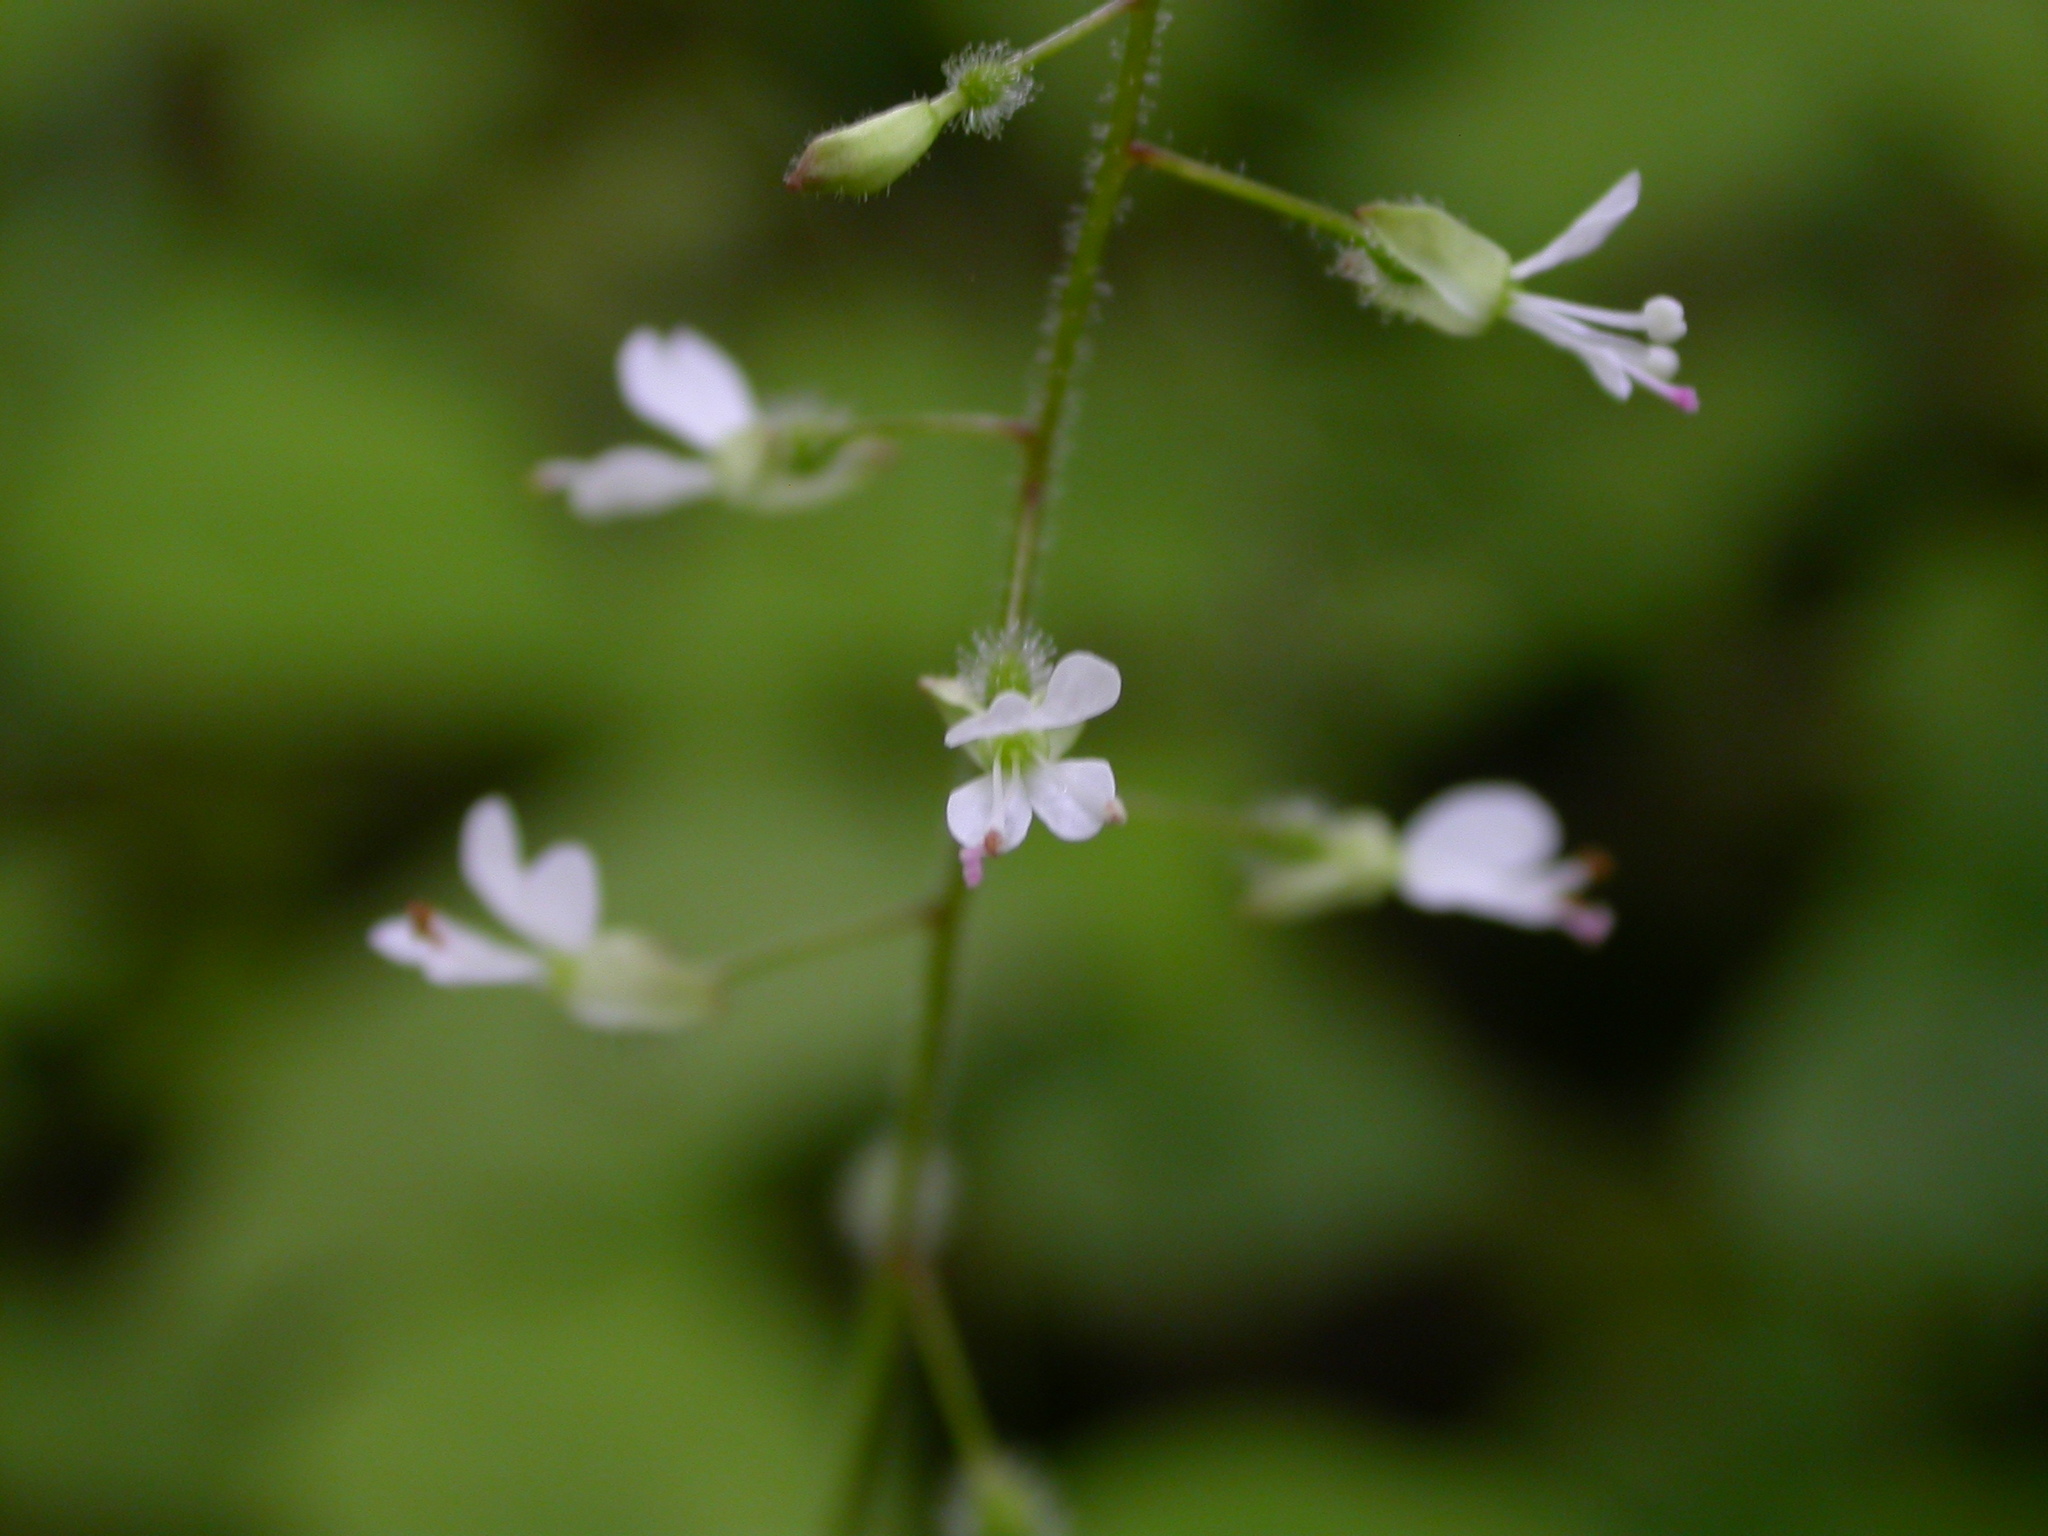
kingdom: Plantae
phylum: Tracheophyta
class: Magnoliopsida
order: Myrtales
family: Onagraceae
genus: Circaea
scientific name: Circaea lutetiana
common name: Enchanter's-nightshade
